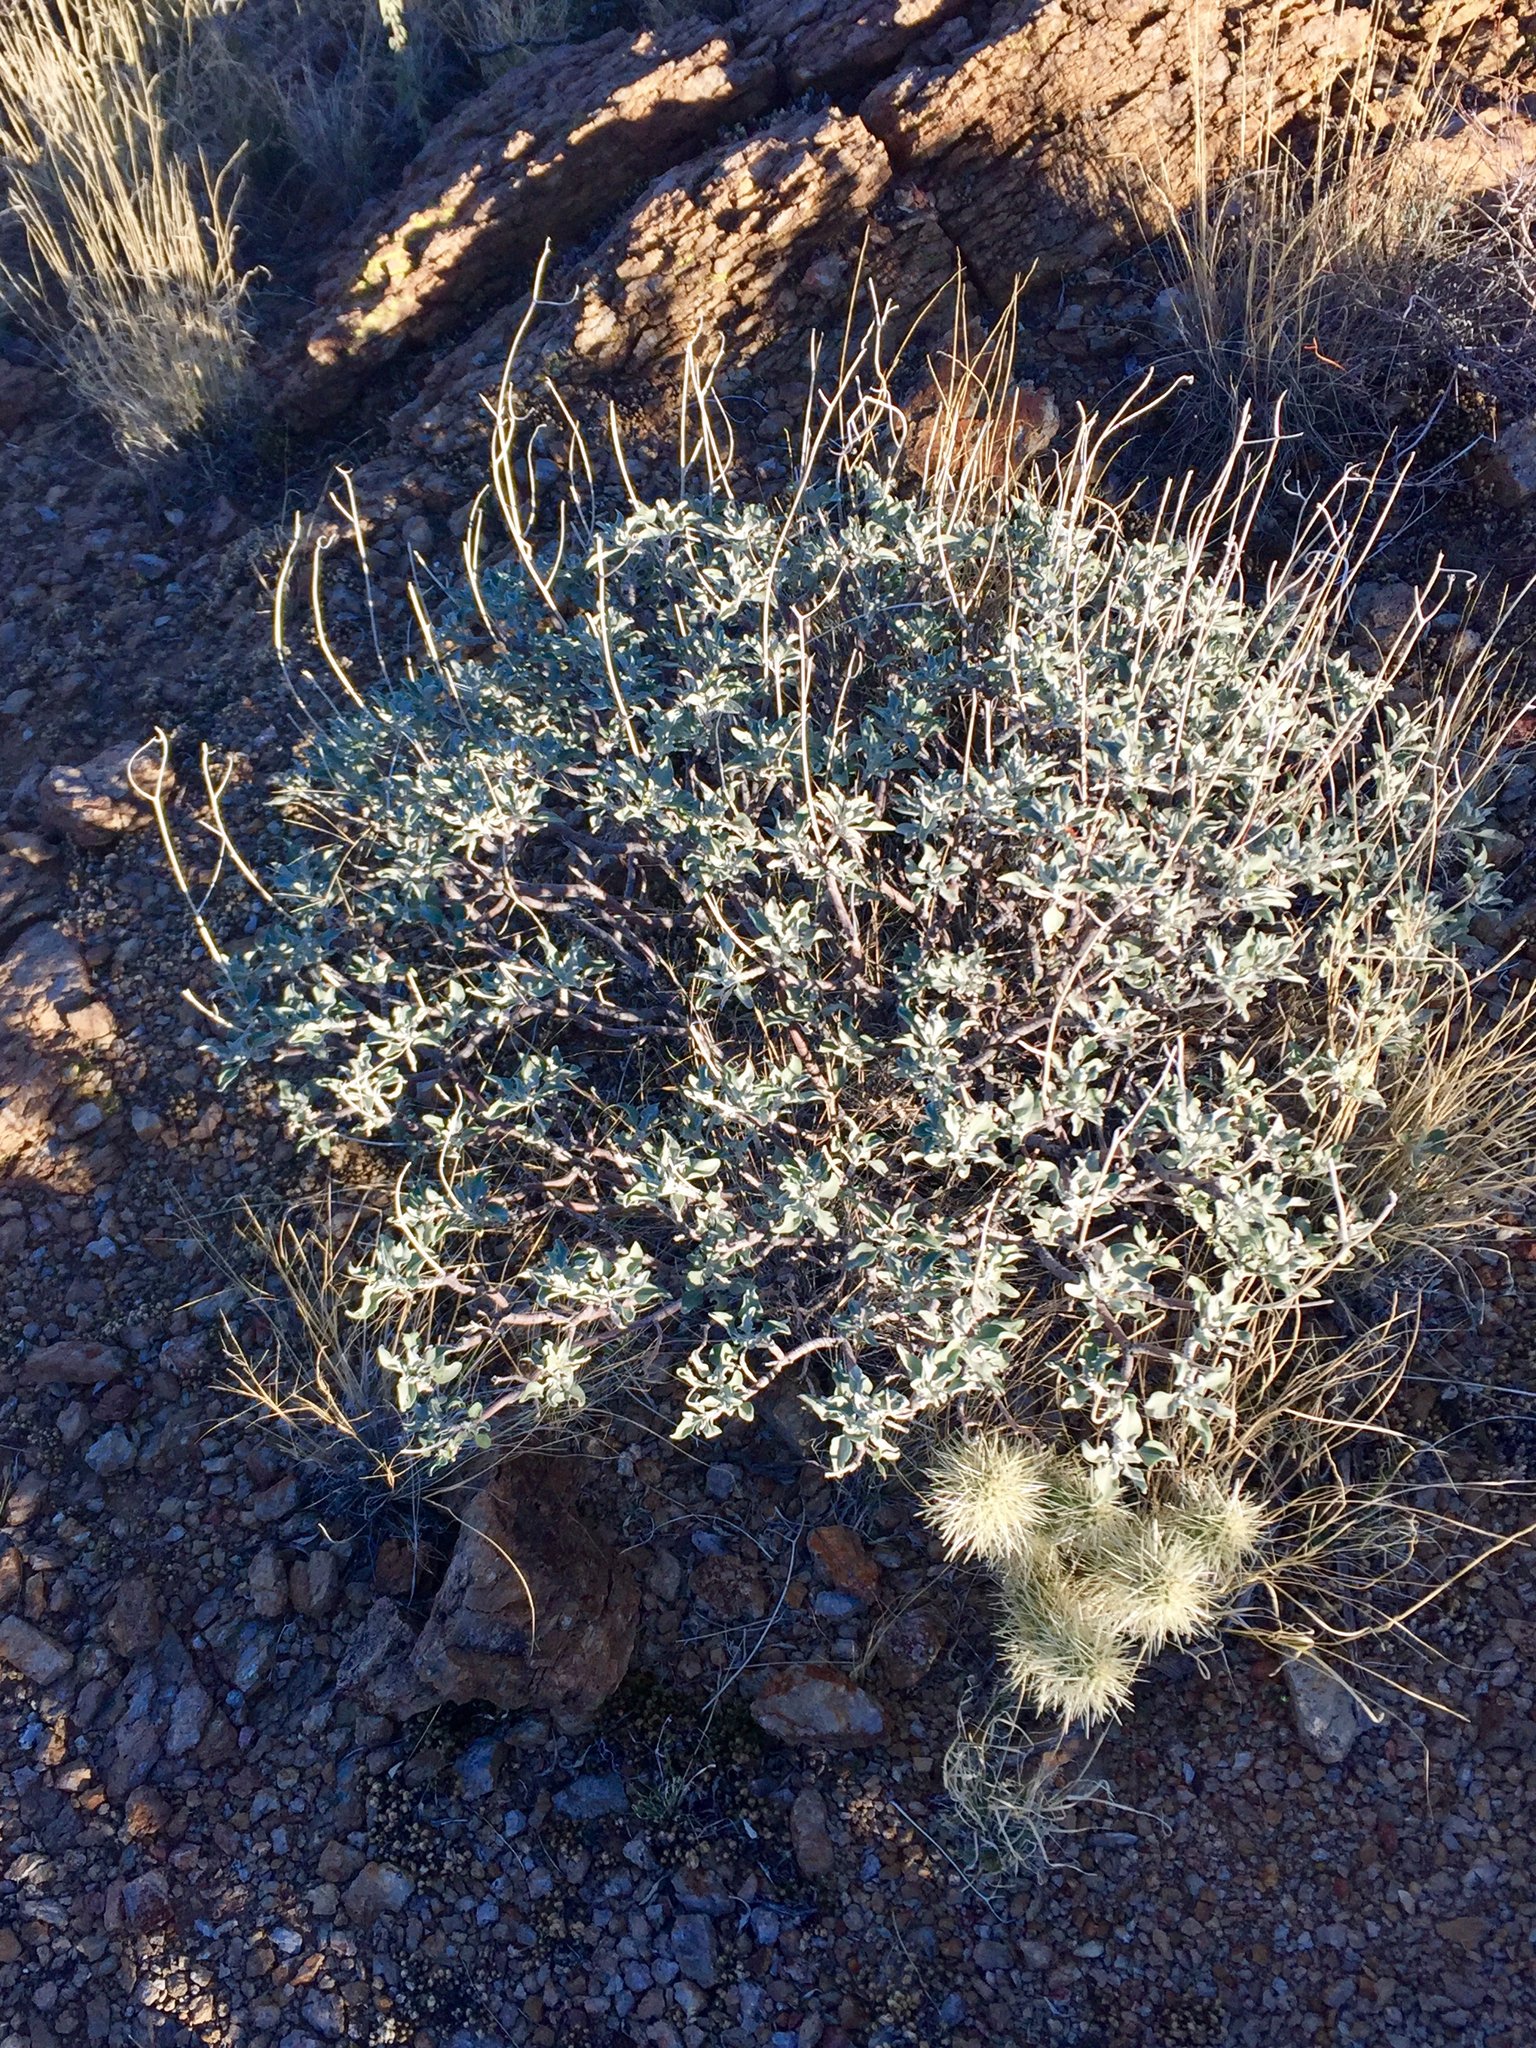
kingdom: Plantae
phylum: Tracheophyta
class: Magnoliopsida
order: Asterales
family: Asteraceae
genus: Encelia
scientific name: Encelia farinosa
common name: Brittlebush
